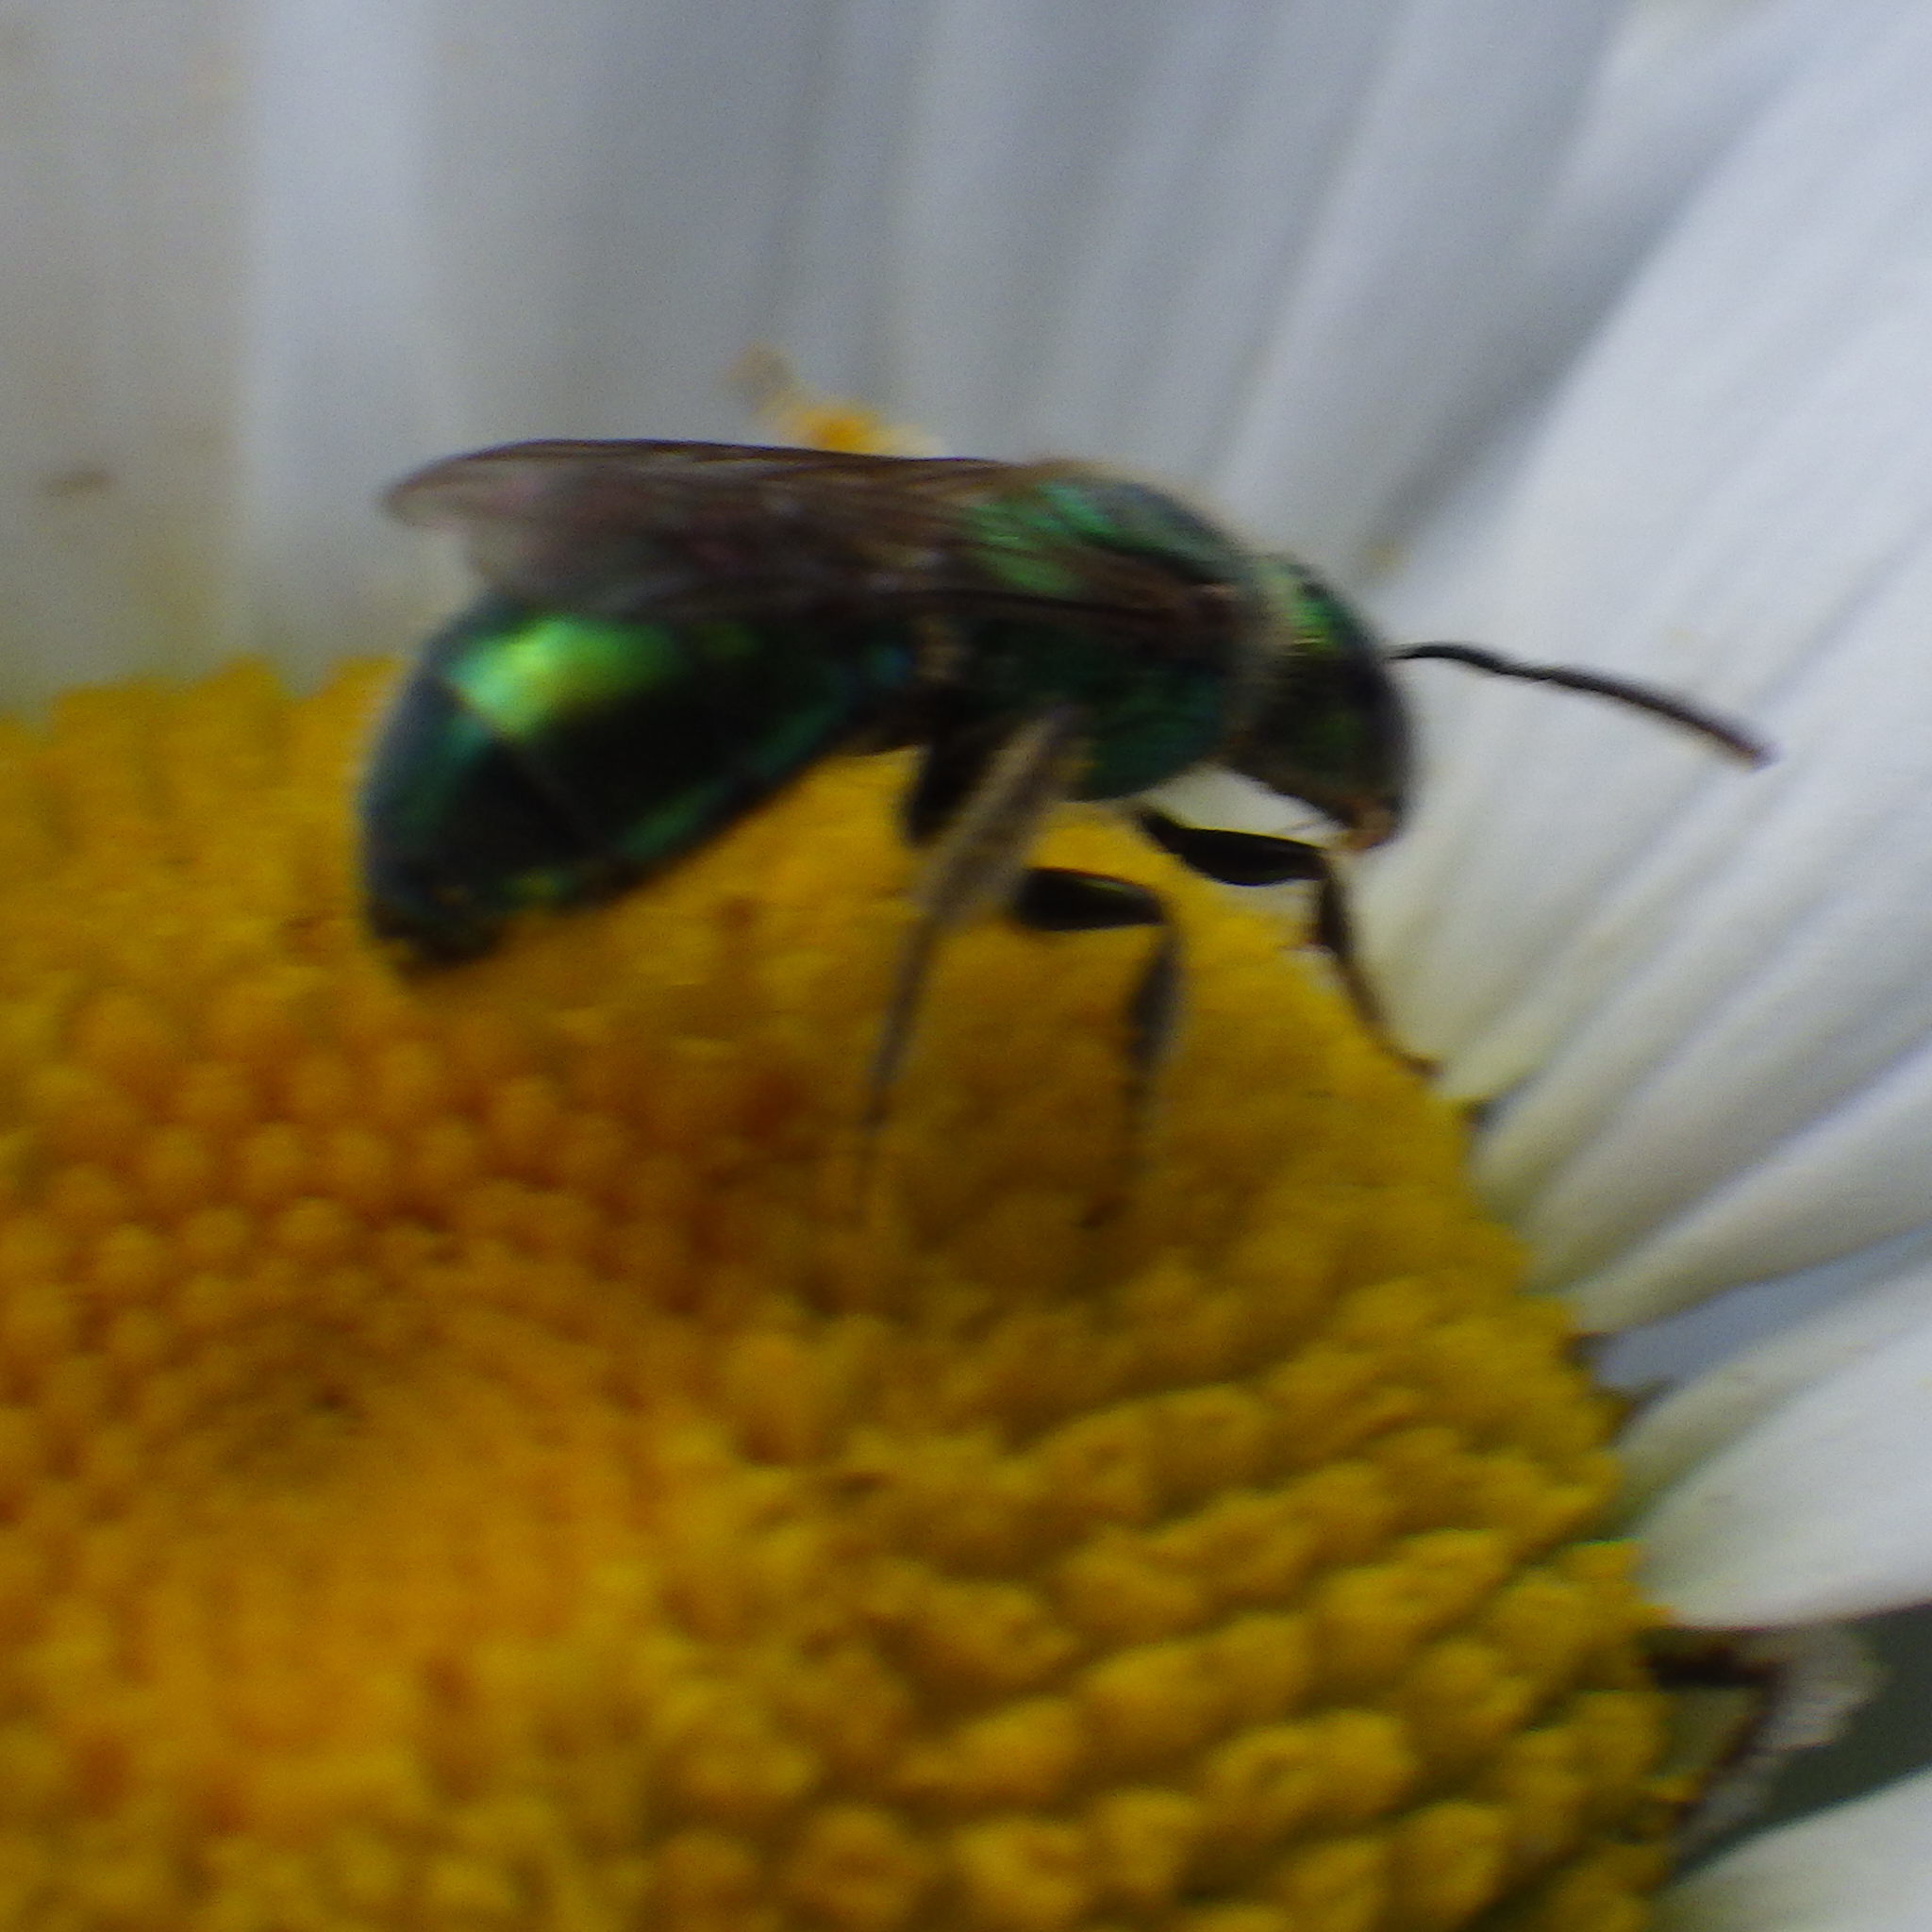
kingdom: Animalia
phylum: Arthropoda
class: Insecta
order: Hymenoptera
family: Halictidae
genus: Augochlorella
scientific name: Augochlorella aurata
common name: Golden sweat bee
